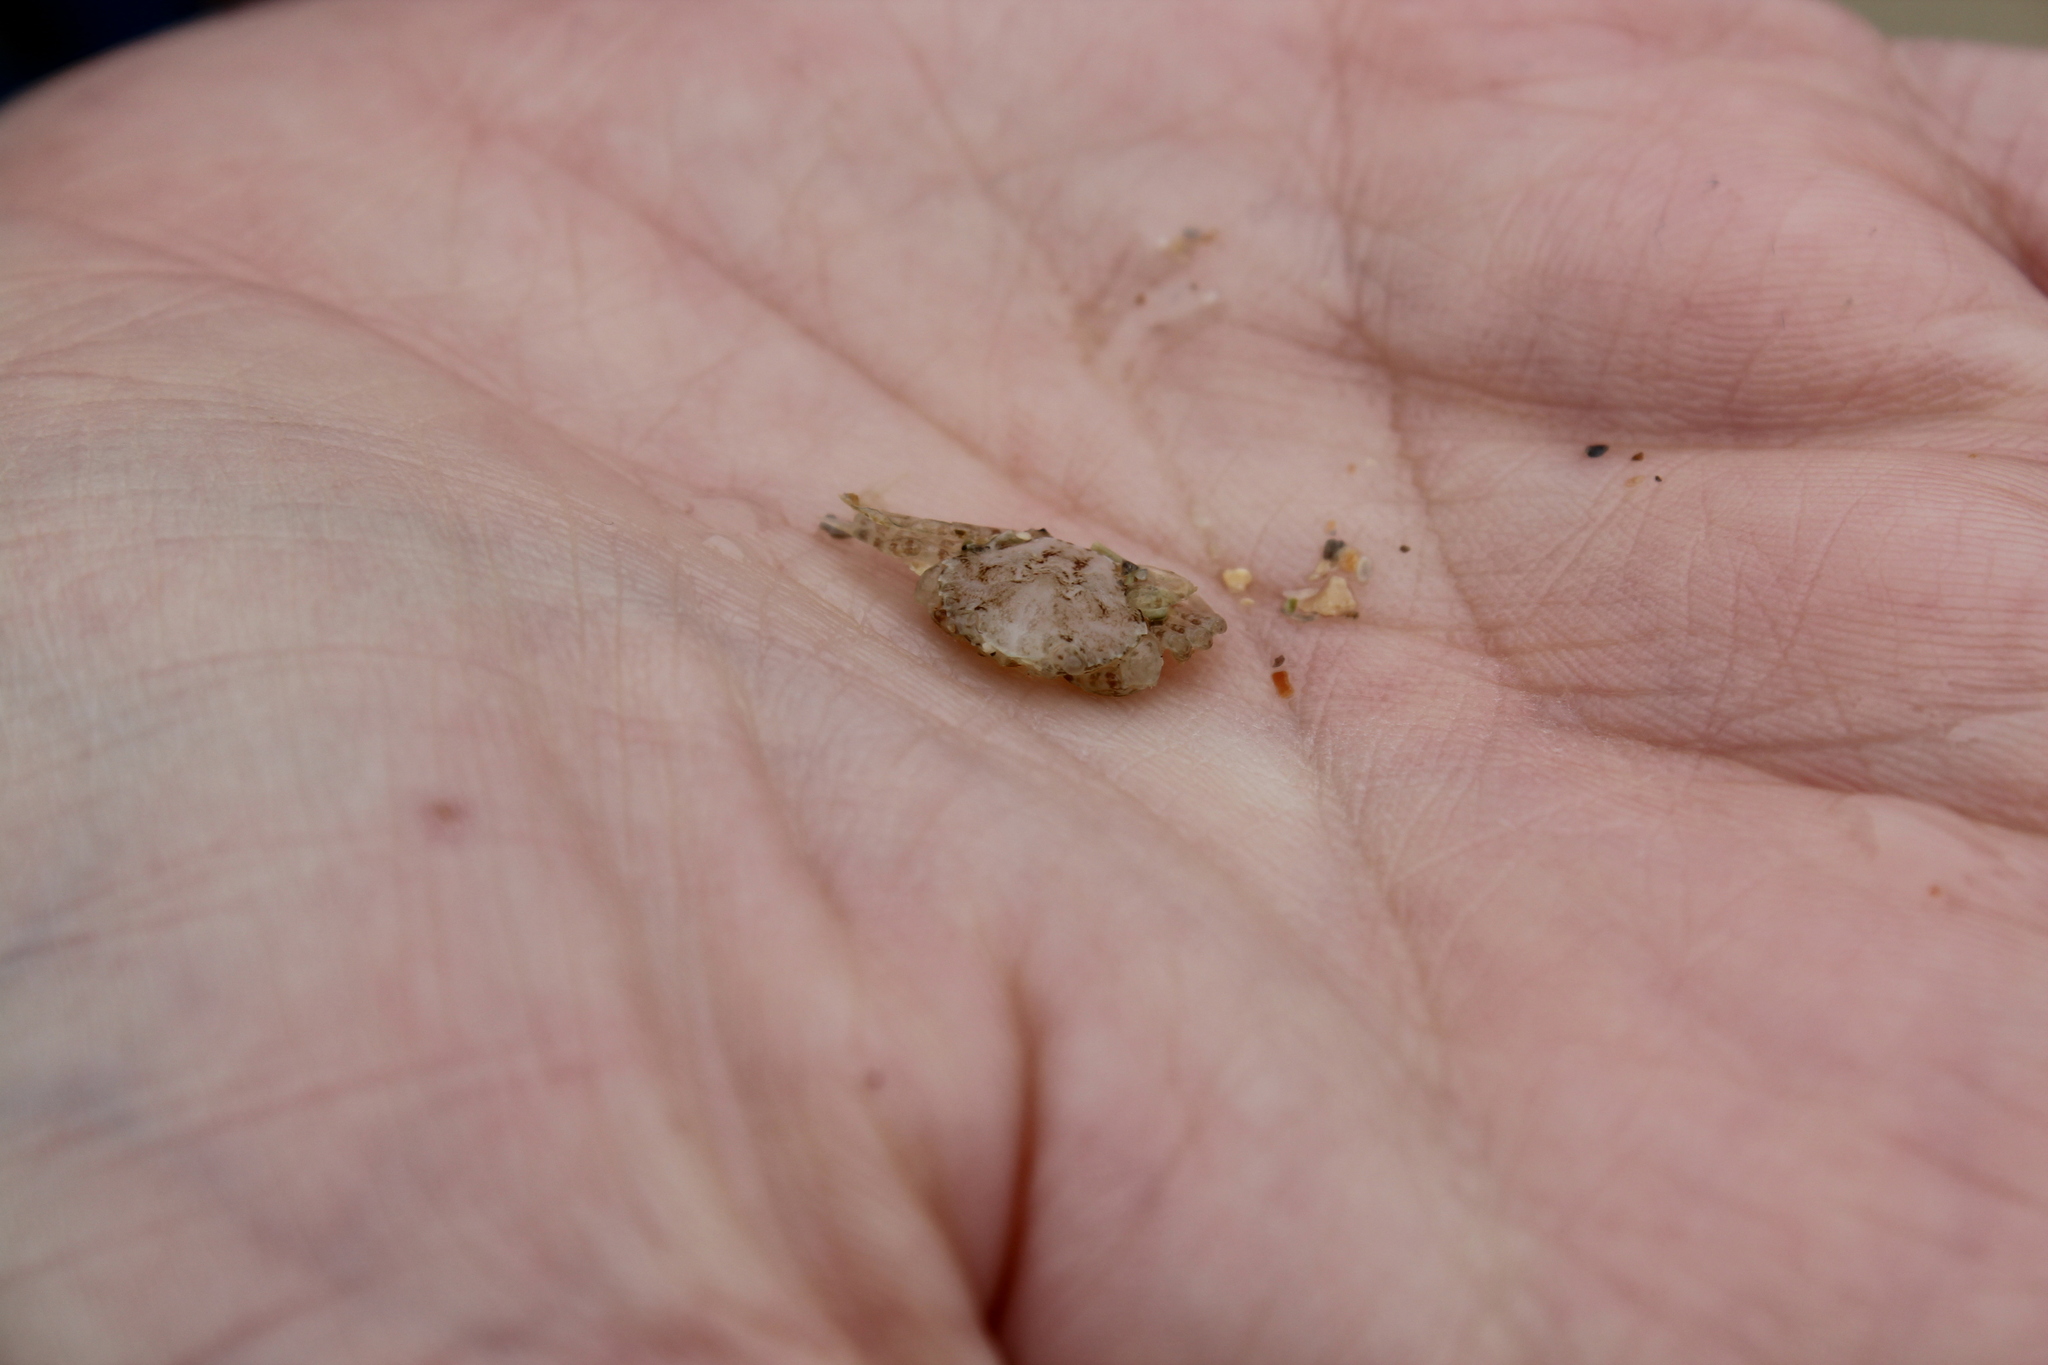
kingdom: Animalia
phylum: Arthropoda
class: Malacostraca
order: Decapoda
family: Carcinidae
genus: Carcinus
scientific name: Carcinus maenas
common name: European green crab
